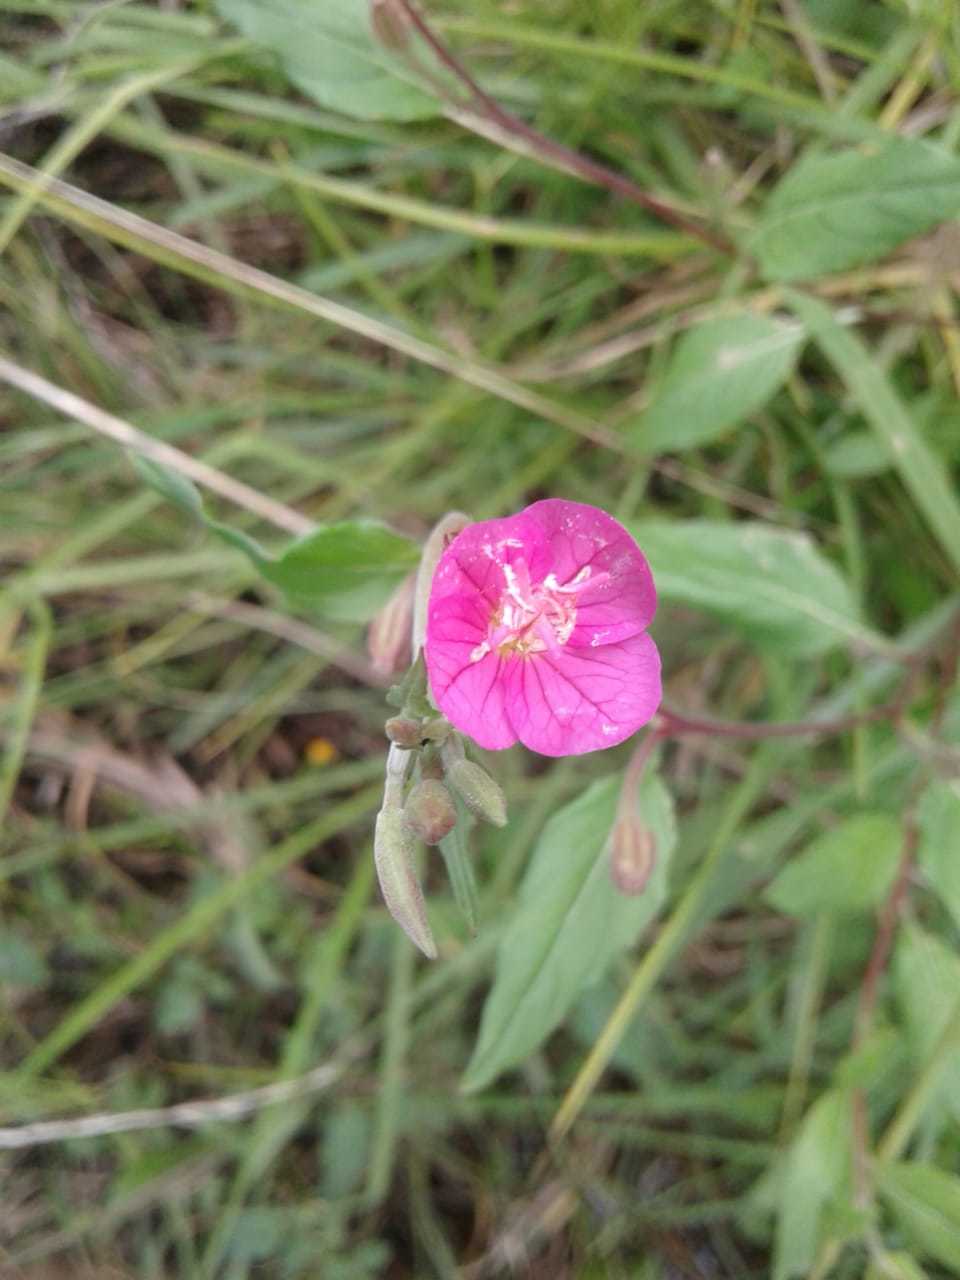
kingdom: Plantae
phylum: Tracheophyta
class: Magnoliopsida
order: Myrtales
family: Onagraceae
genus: Oenothera
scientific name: Oenothera rosea
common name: Rosy evening-primrose
